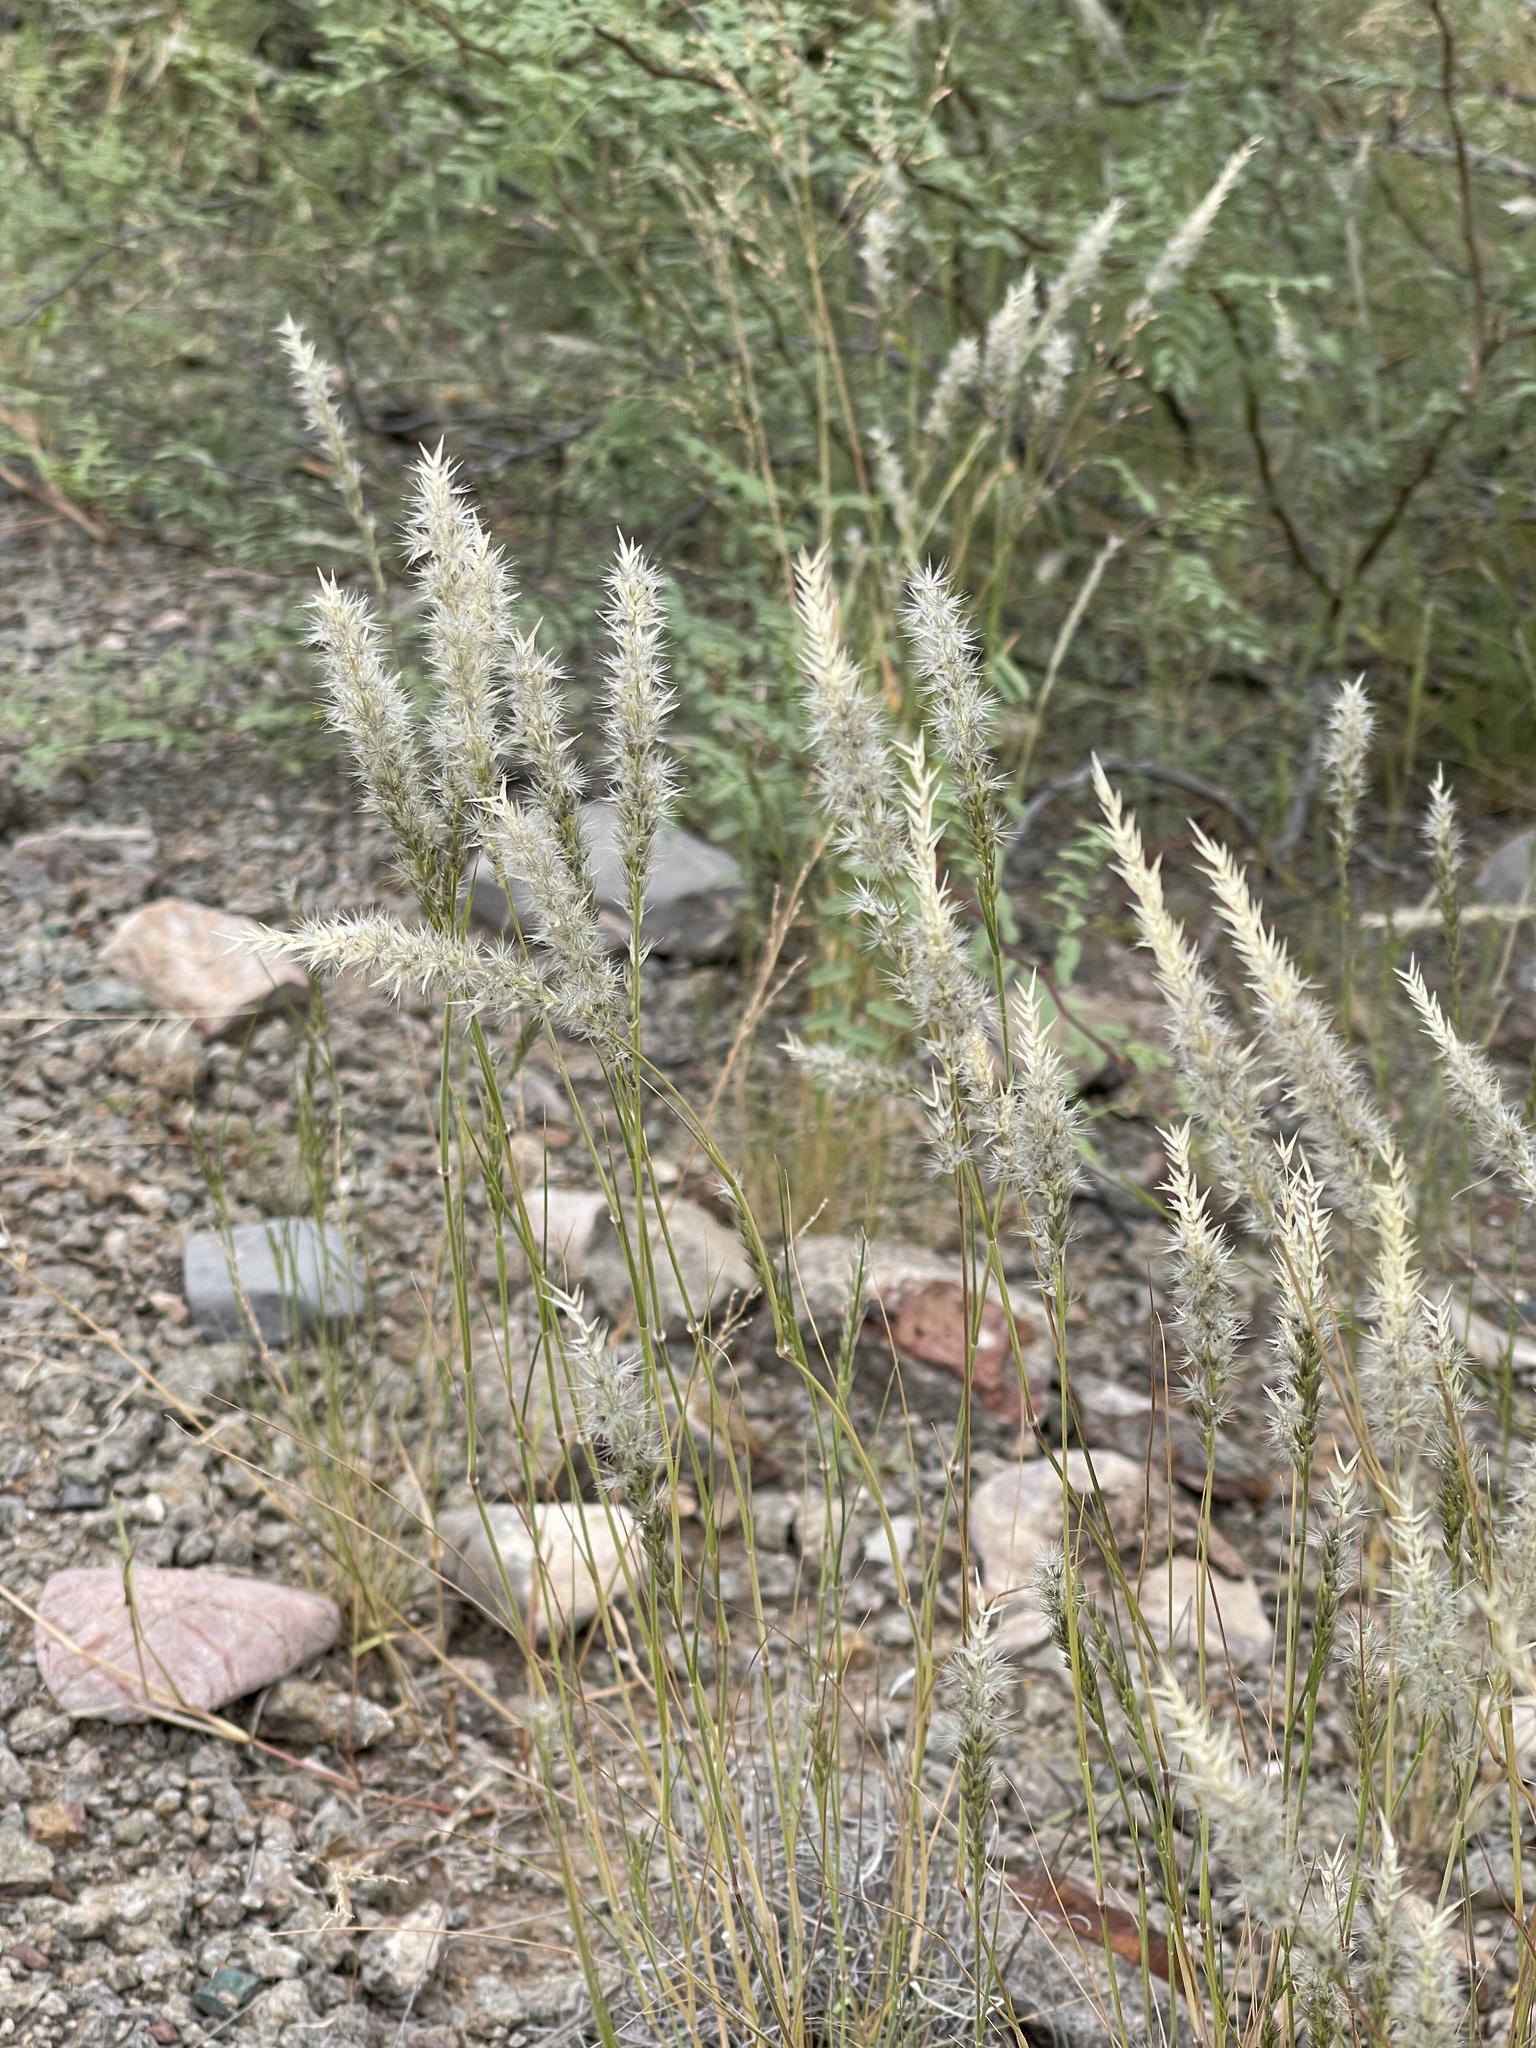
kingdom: Plantae
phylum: Tracheophyta
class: Liliopsida
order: Poales
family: Poaceae
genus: Enneapogon
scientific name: Enneapogon desvauxii
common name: Feather pappus grass
